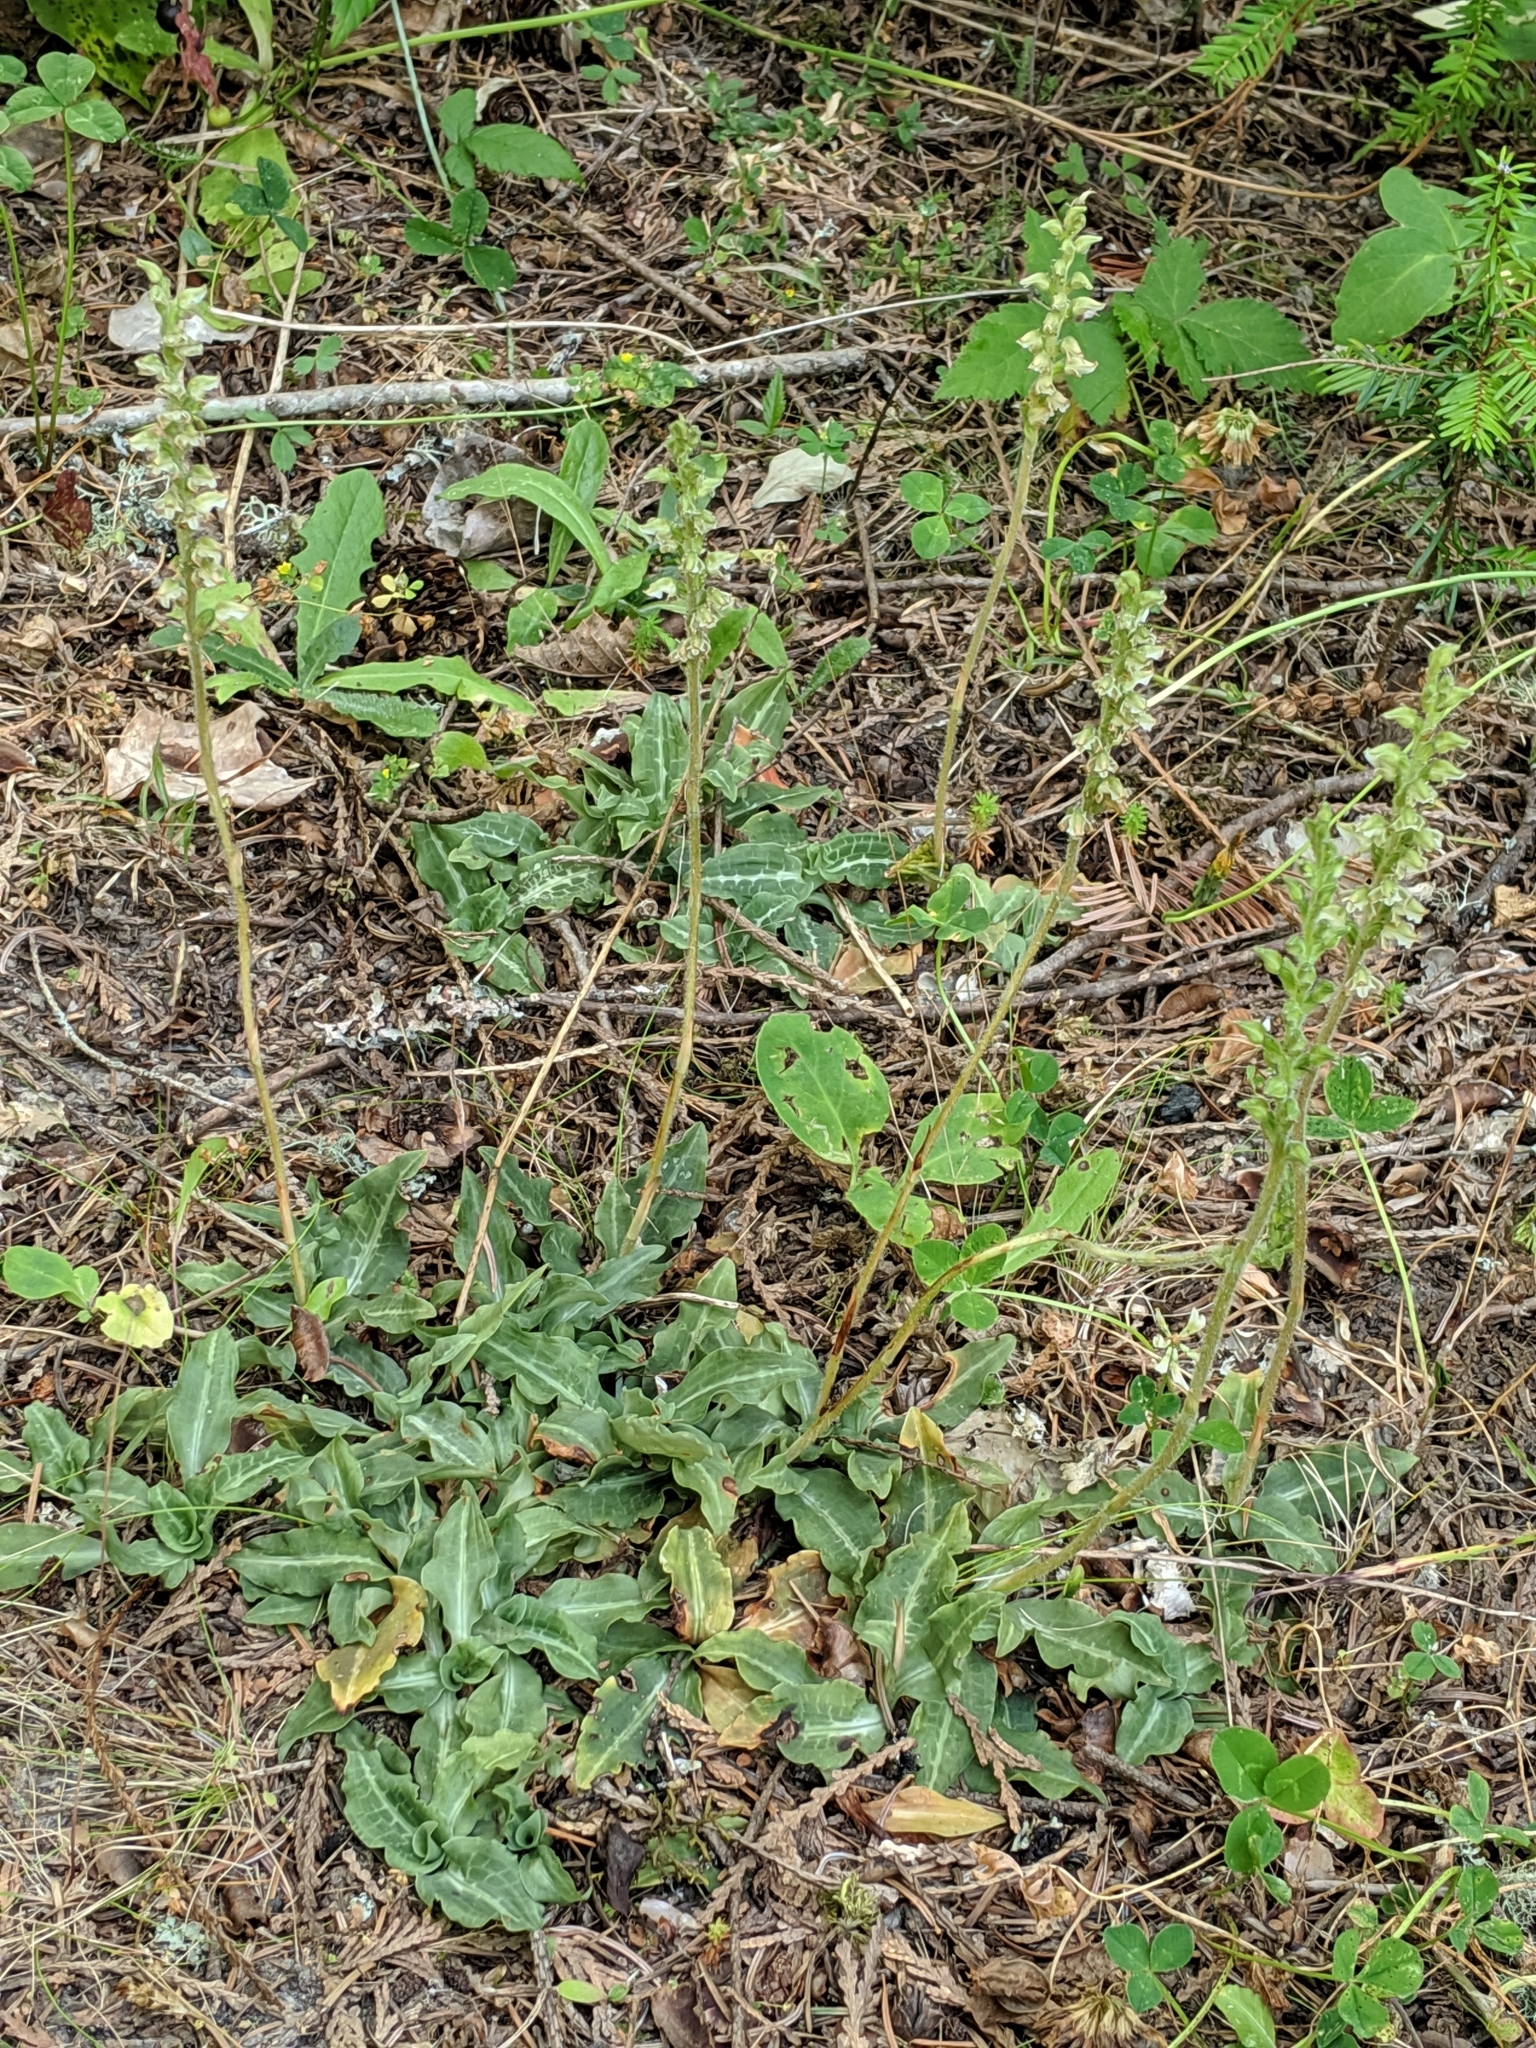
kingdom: Plantae
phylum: Tracheophyta
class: Liliopsida
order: Asparagales
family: Orchidaceae
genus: Goodyera
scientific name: Goodyera oblongifolia
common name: Giant rattlesnake-plantain
